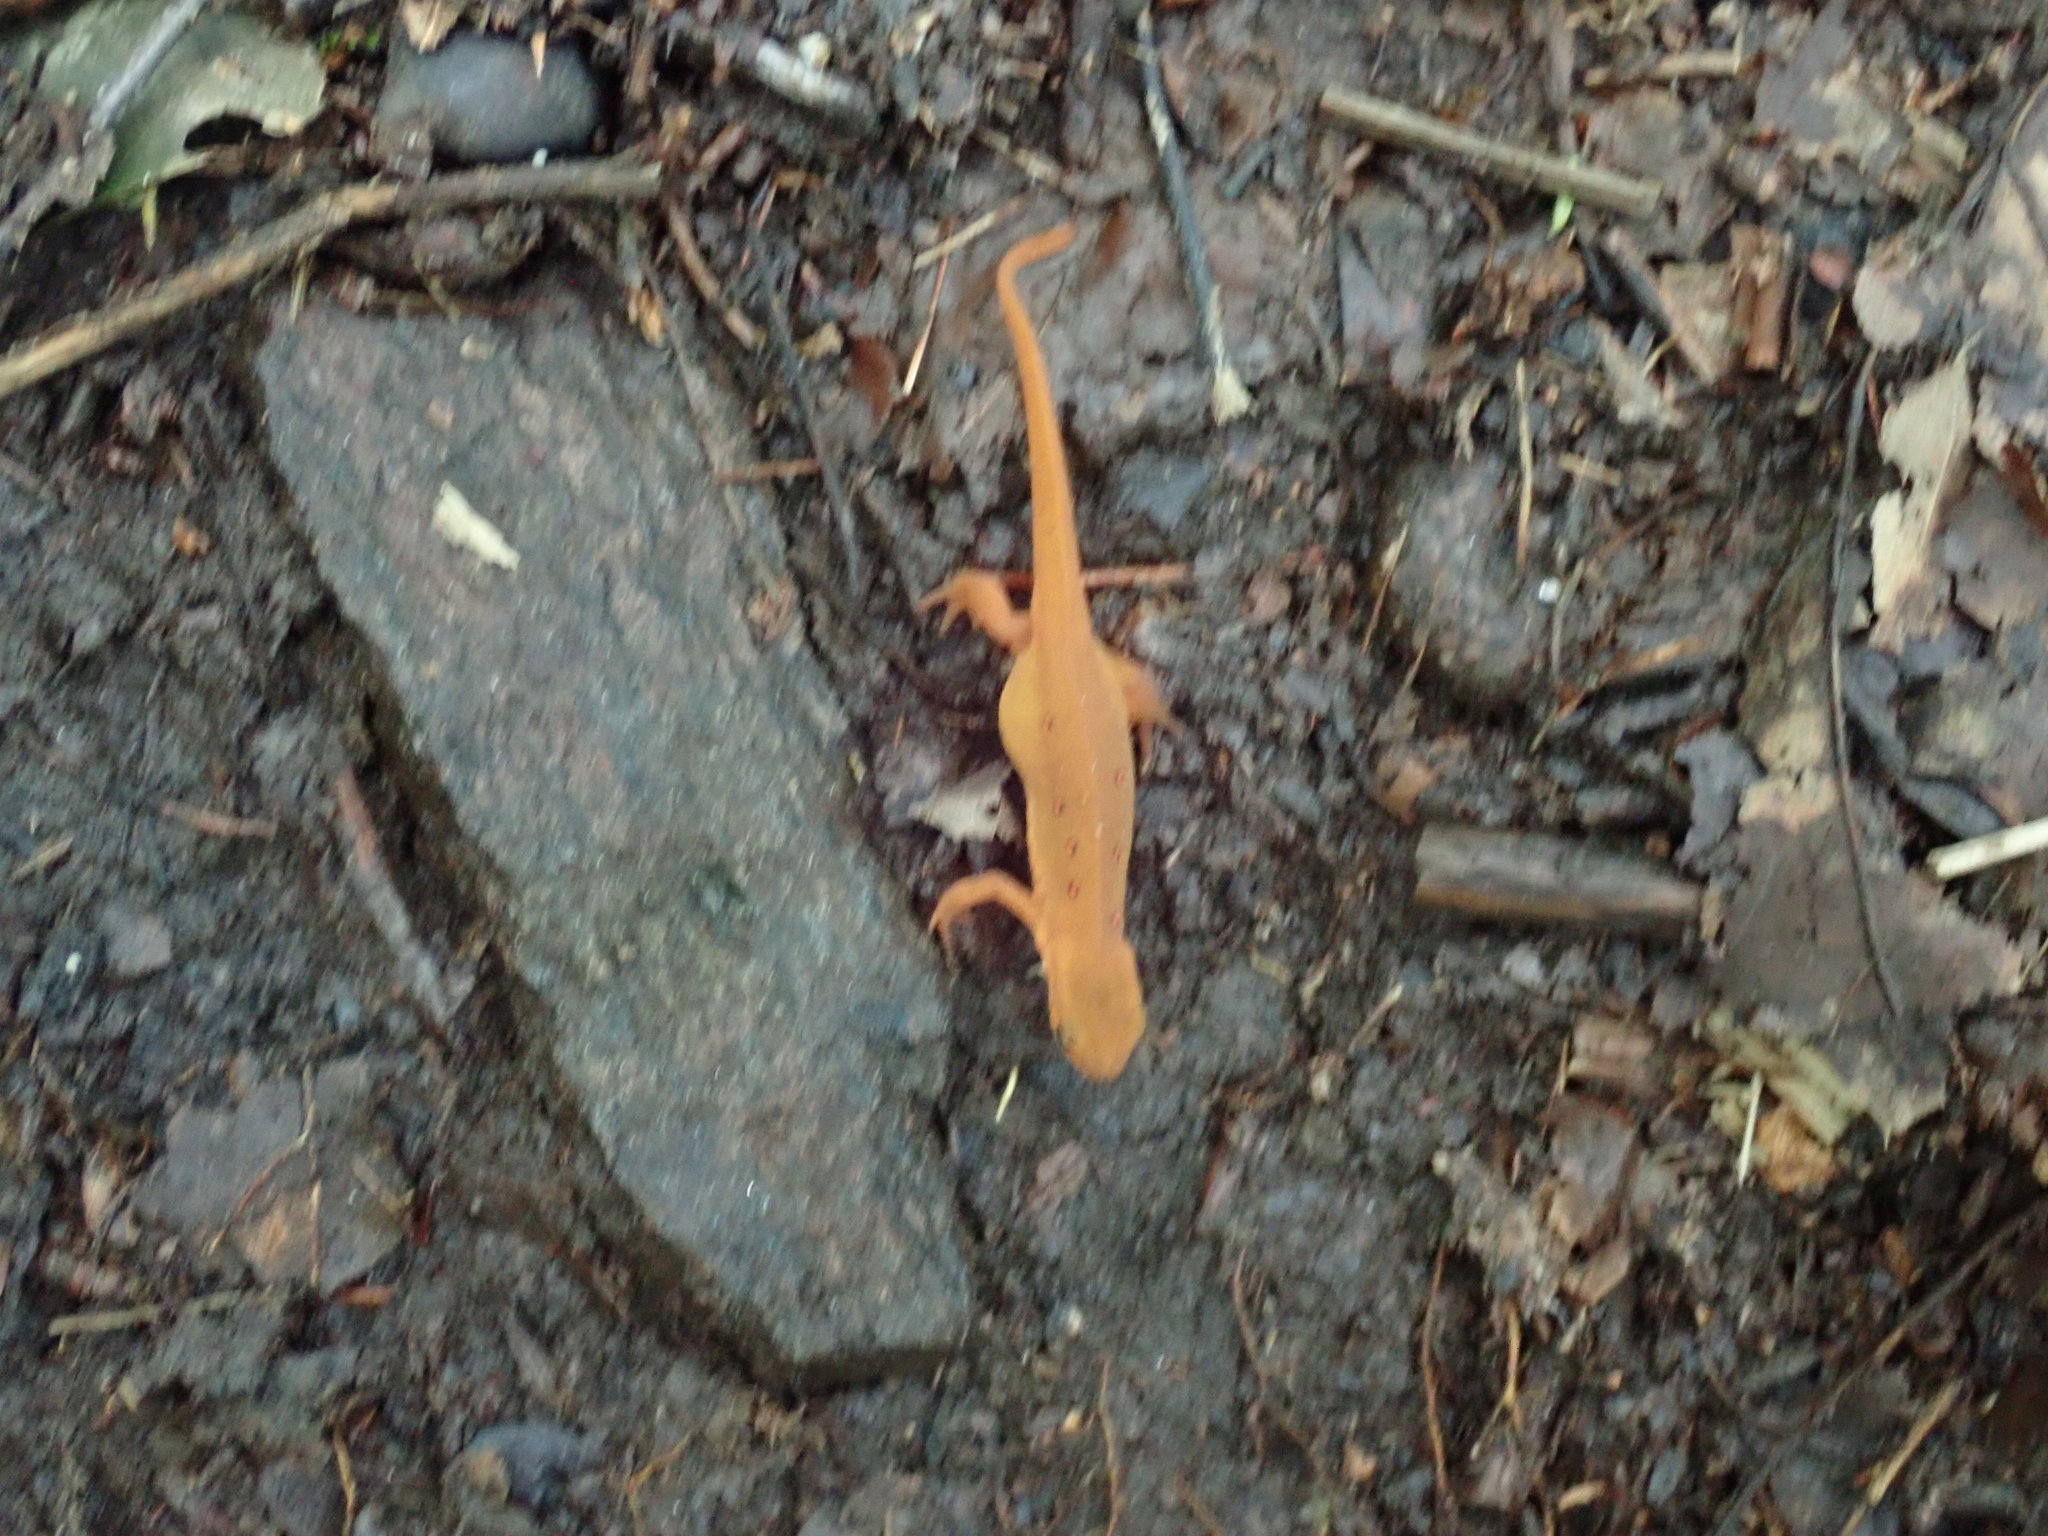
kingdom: Animalia
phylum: Chordata
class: Amphibia
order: Caudata
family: Salamandridae
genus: Notophthalmus
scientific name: Notophthalmus viridescens
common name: Eastern newt
